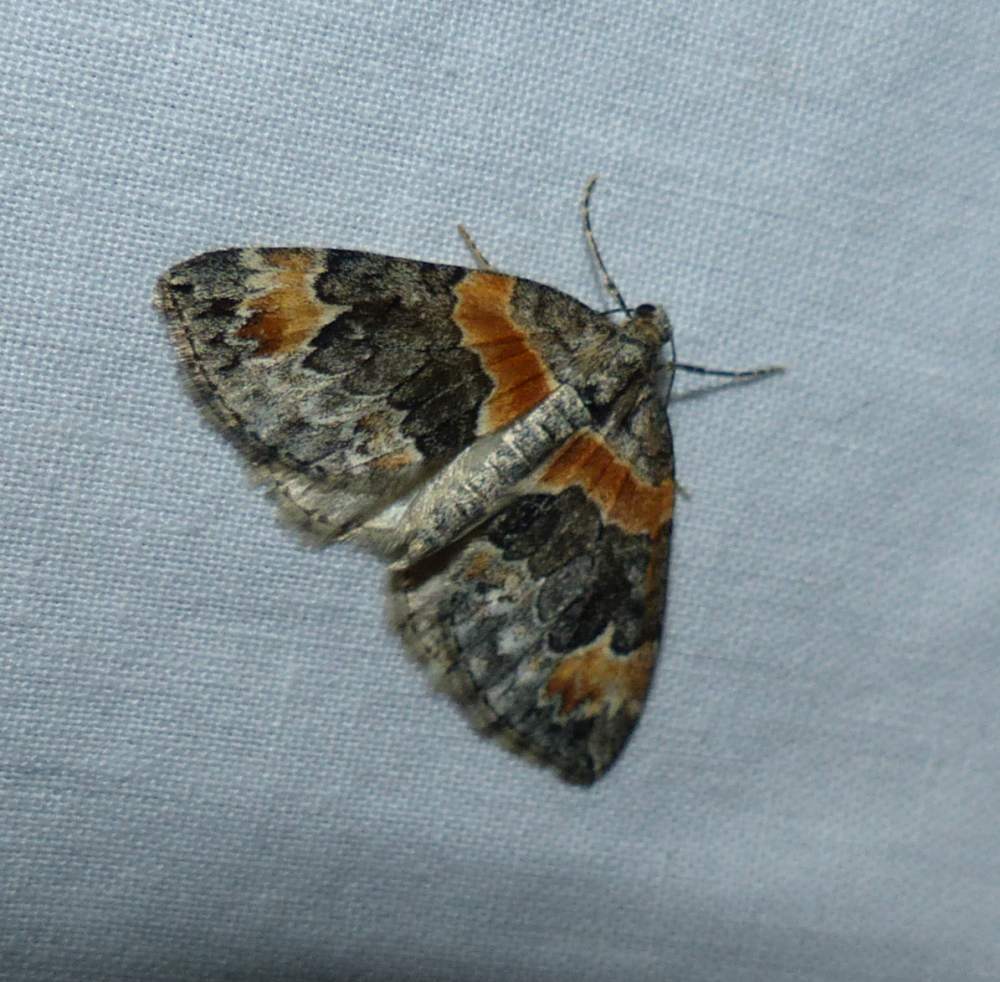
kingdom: Animalia
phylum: Arthropoda
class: Insecta
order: Lepidoptera
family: Geometridae
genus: Dysstroma
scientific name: Dysstroma hersiliata
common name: Orange-barred carpet
